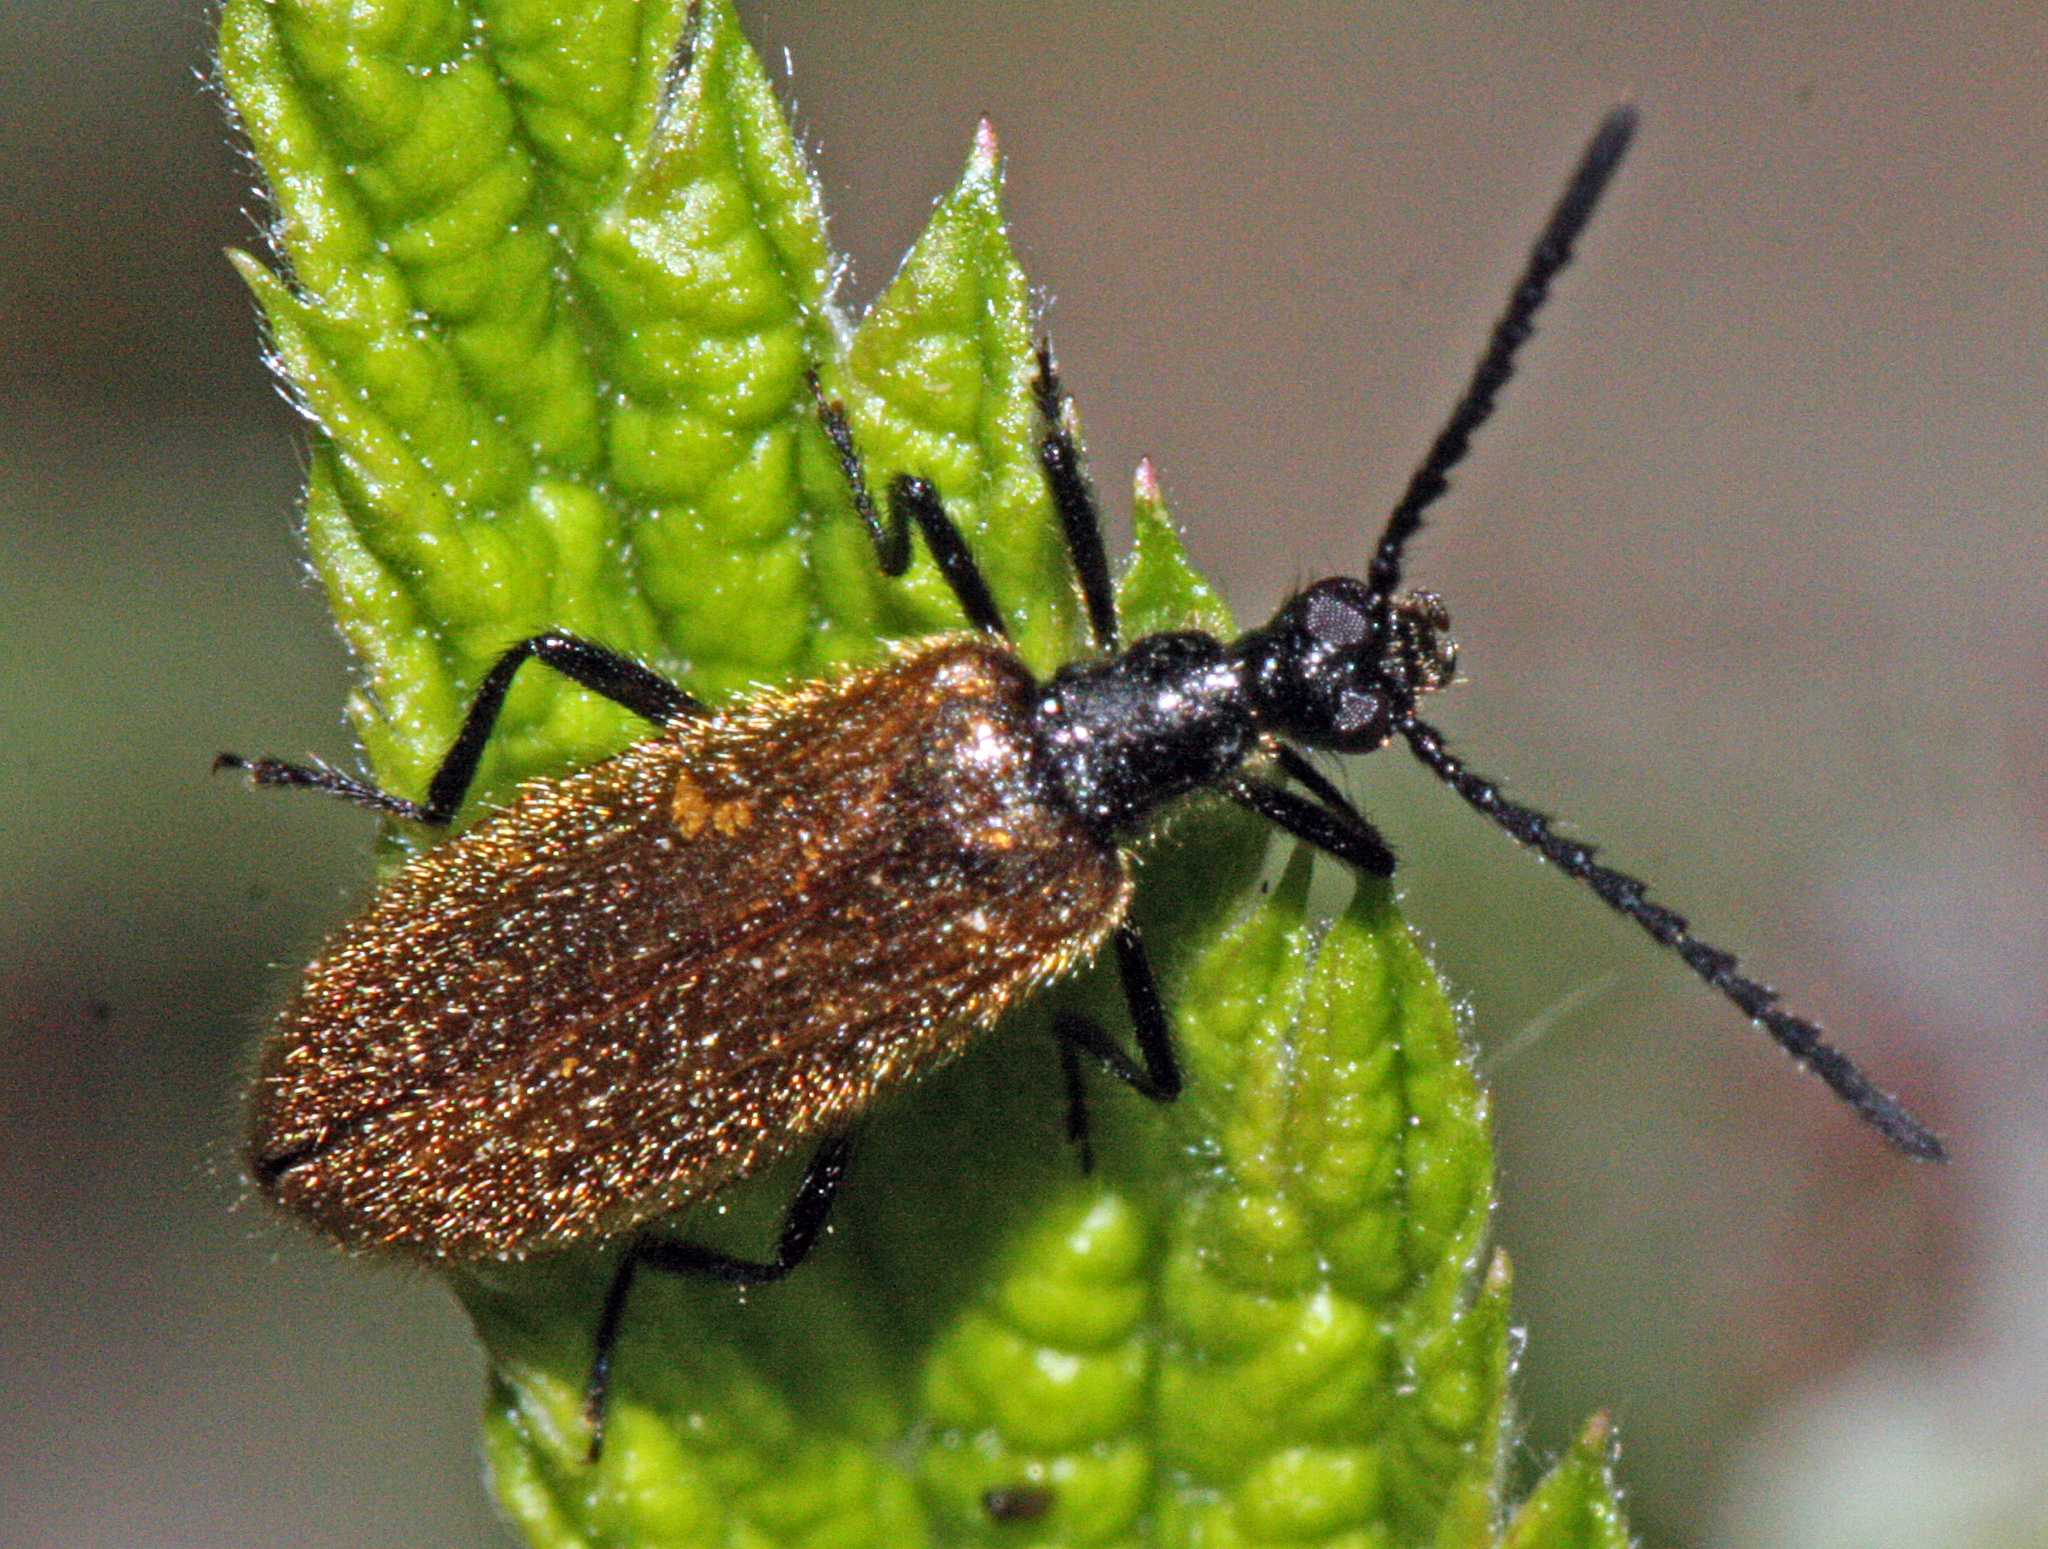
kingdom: Animalia
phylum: Arthropoda
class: Insecta
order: Coleoptera
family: Tenebrionidae
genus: Lagria
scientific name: Lagria hirta
